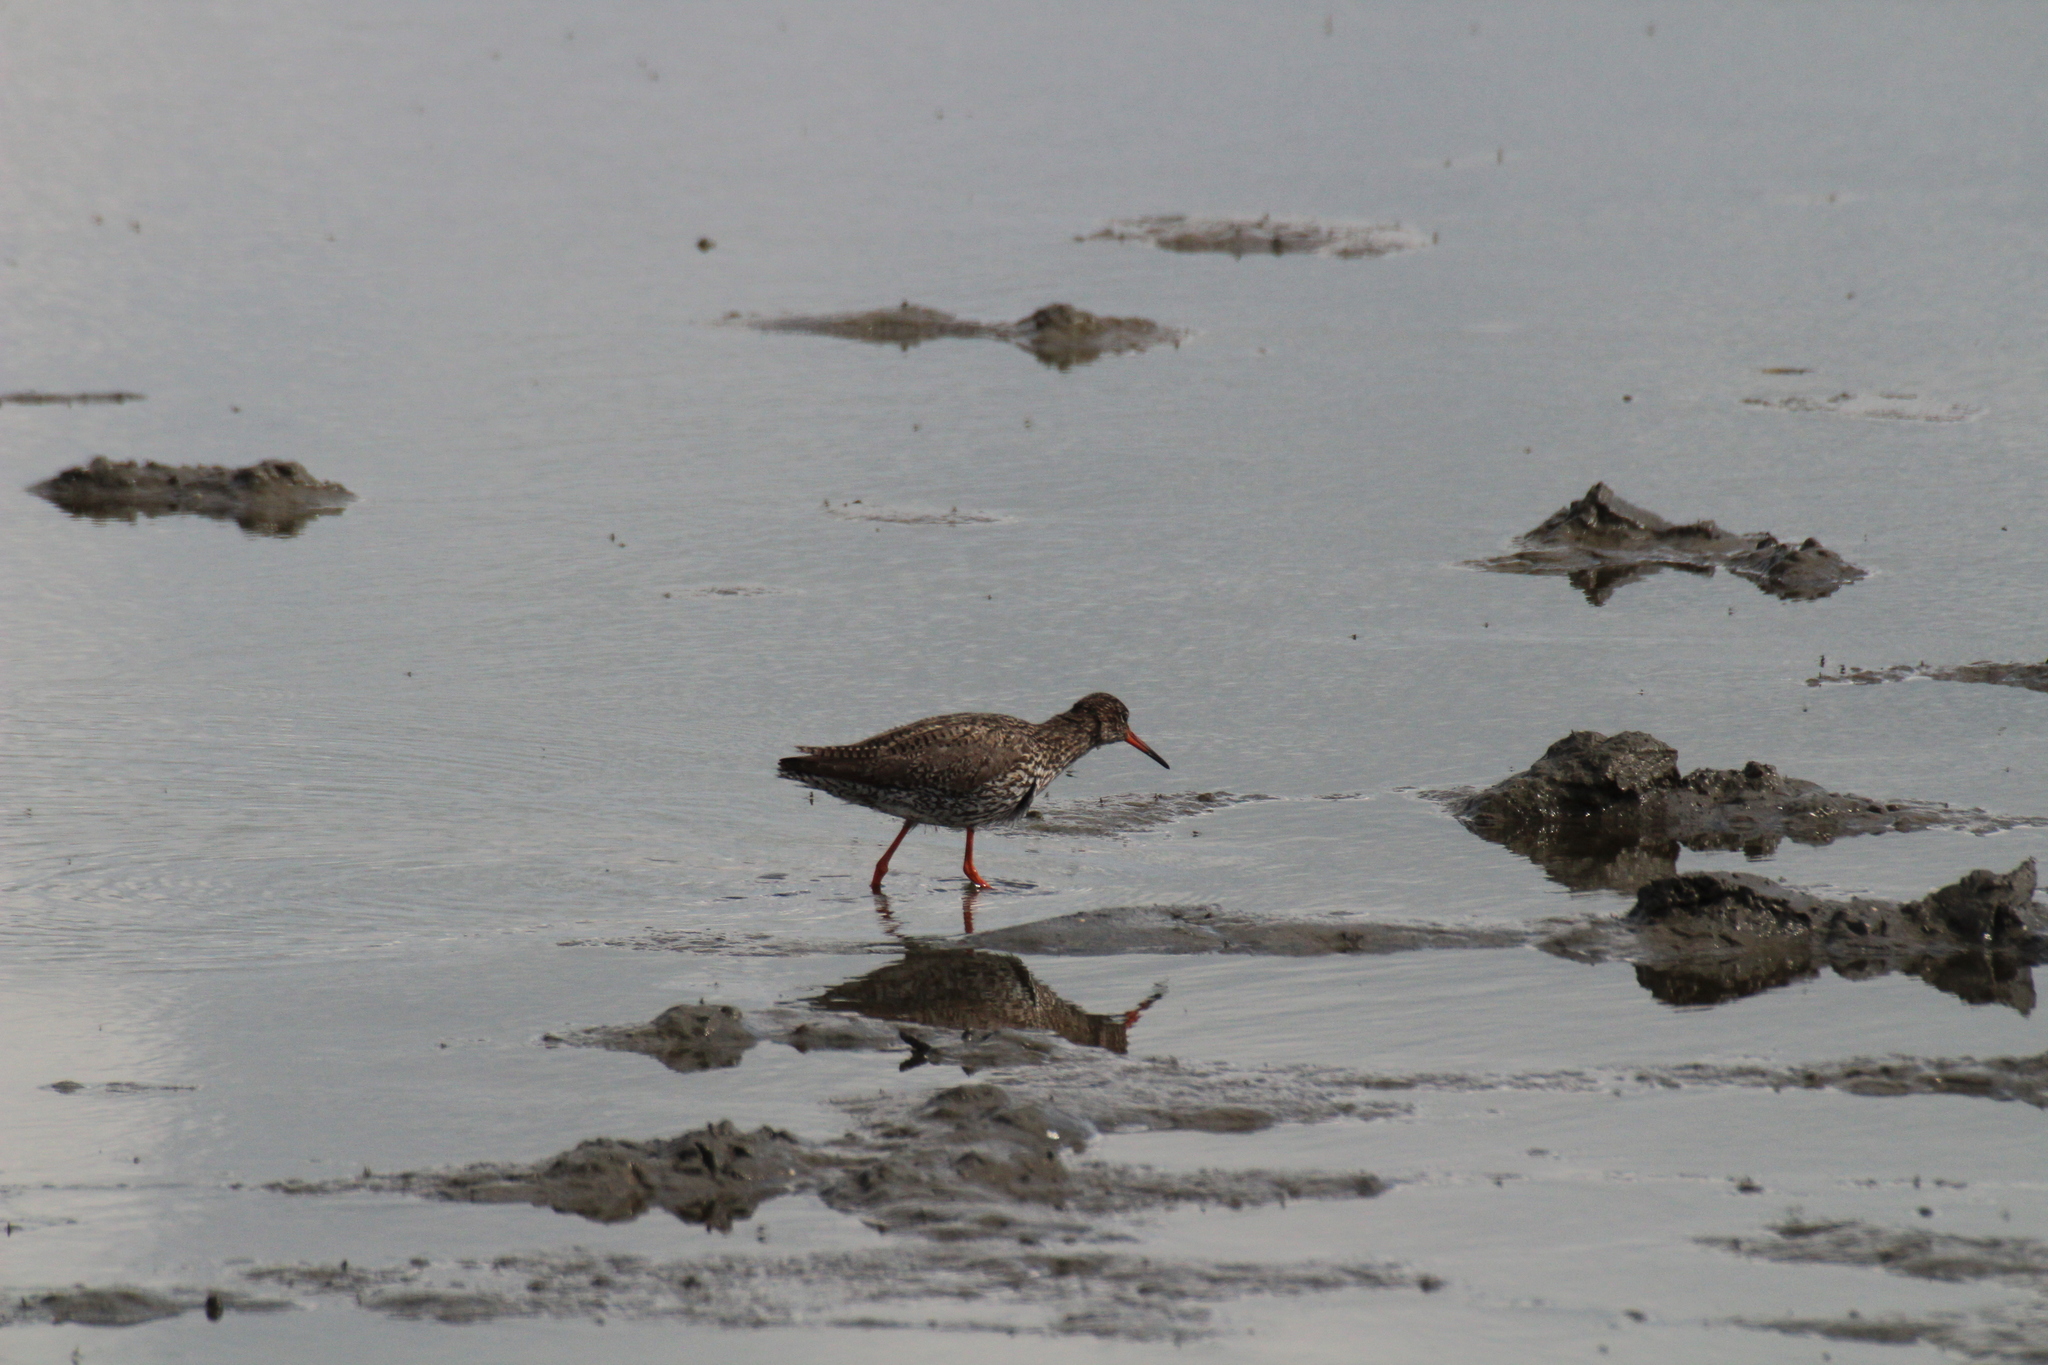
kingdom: Animalia
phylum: Chordata
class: Aves
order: Charadriiformes
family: Scolopacidae
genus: Tringa
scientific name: Tringa totanus
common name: Common redshank
